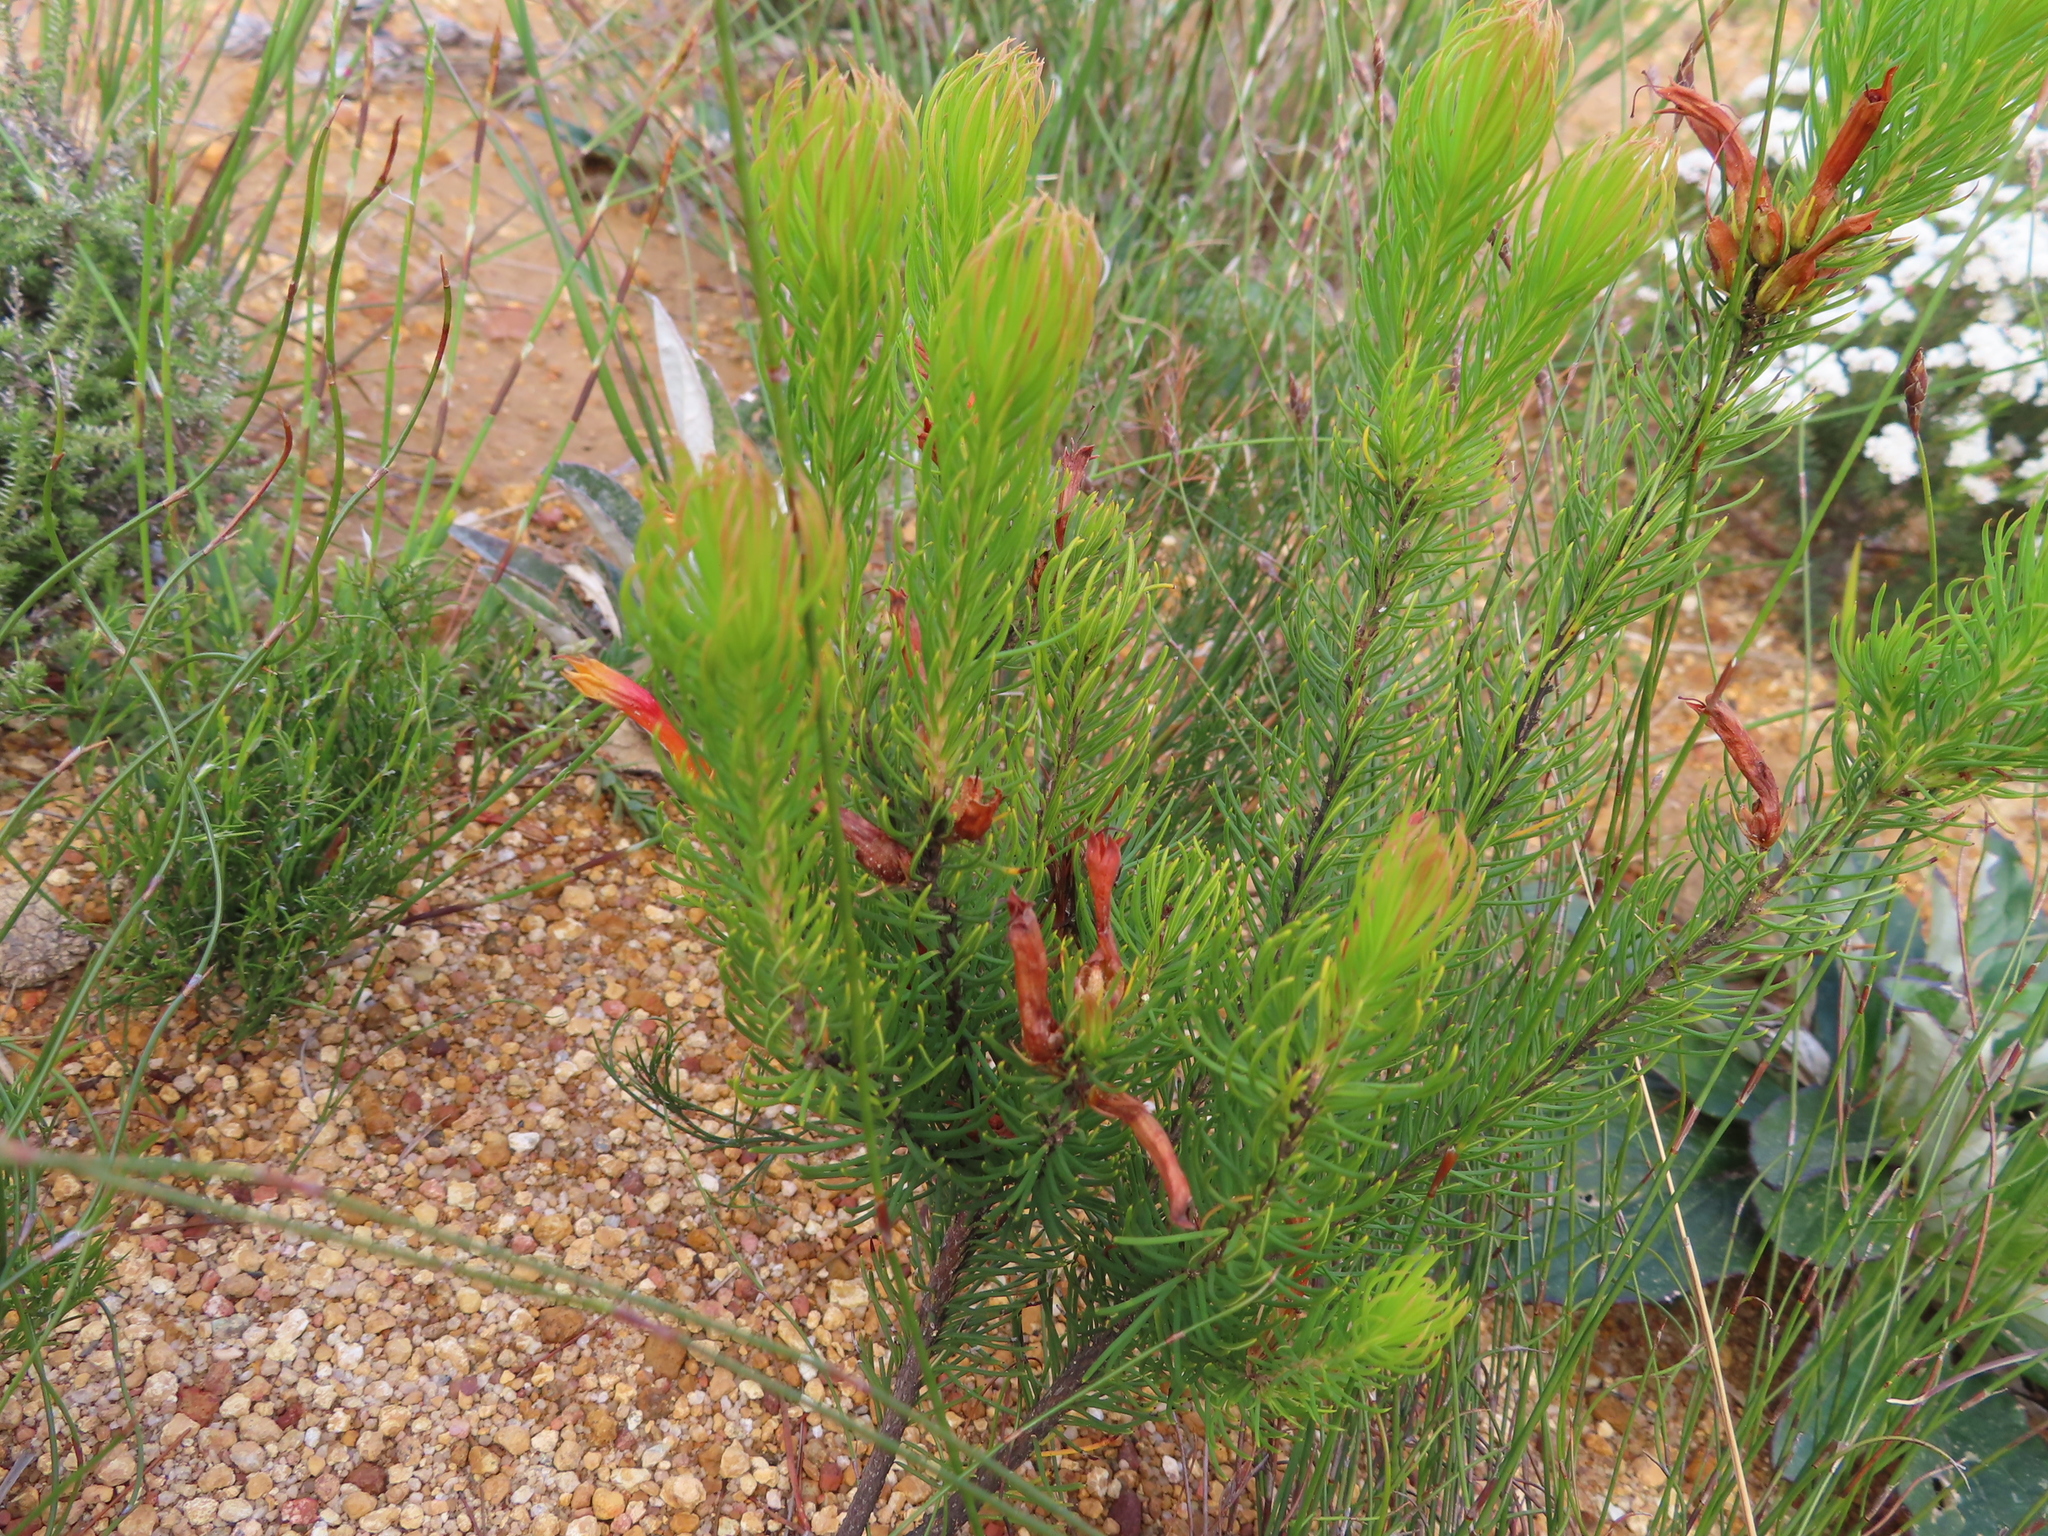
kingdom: Plantae
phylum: Tracheophyta
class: Magnoliopsida
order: Ericales
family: Ericaceae
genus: Erica
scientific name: Erica grandiflora
